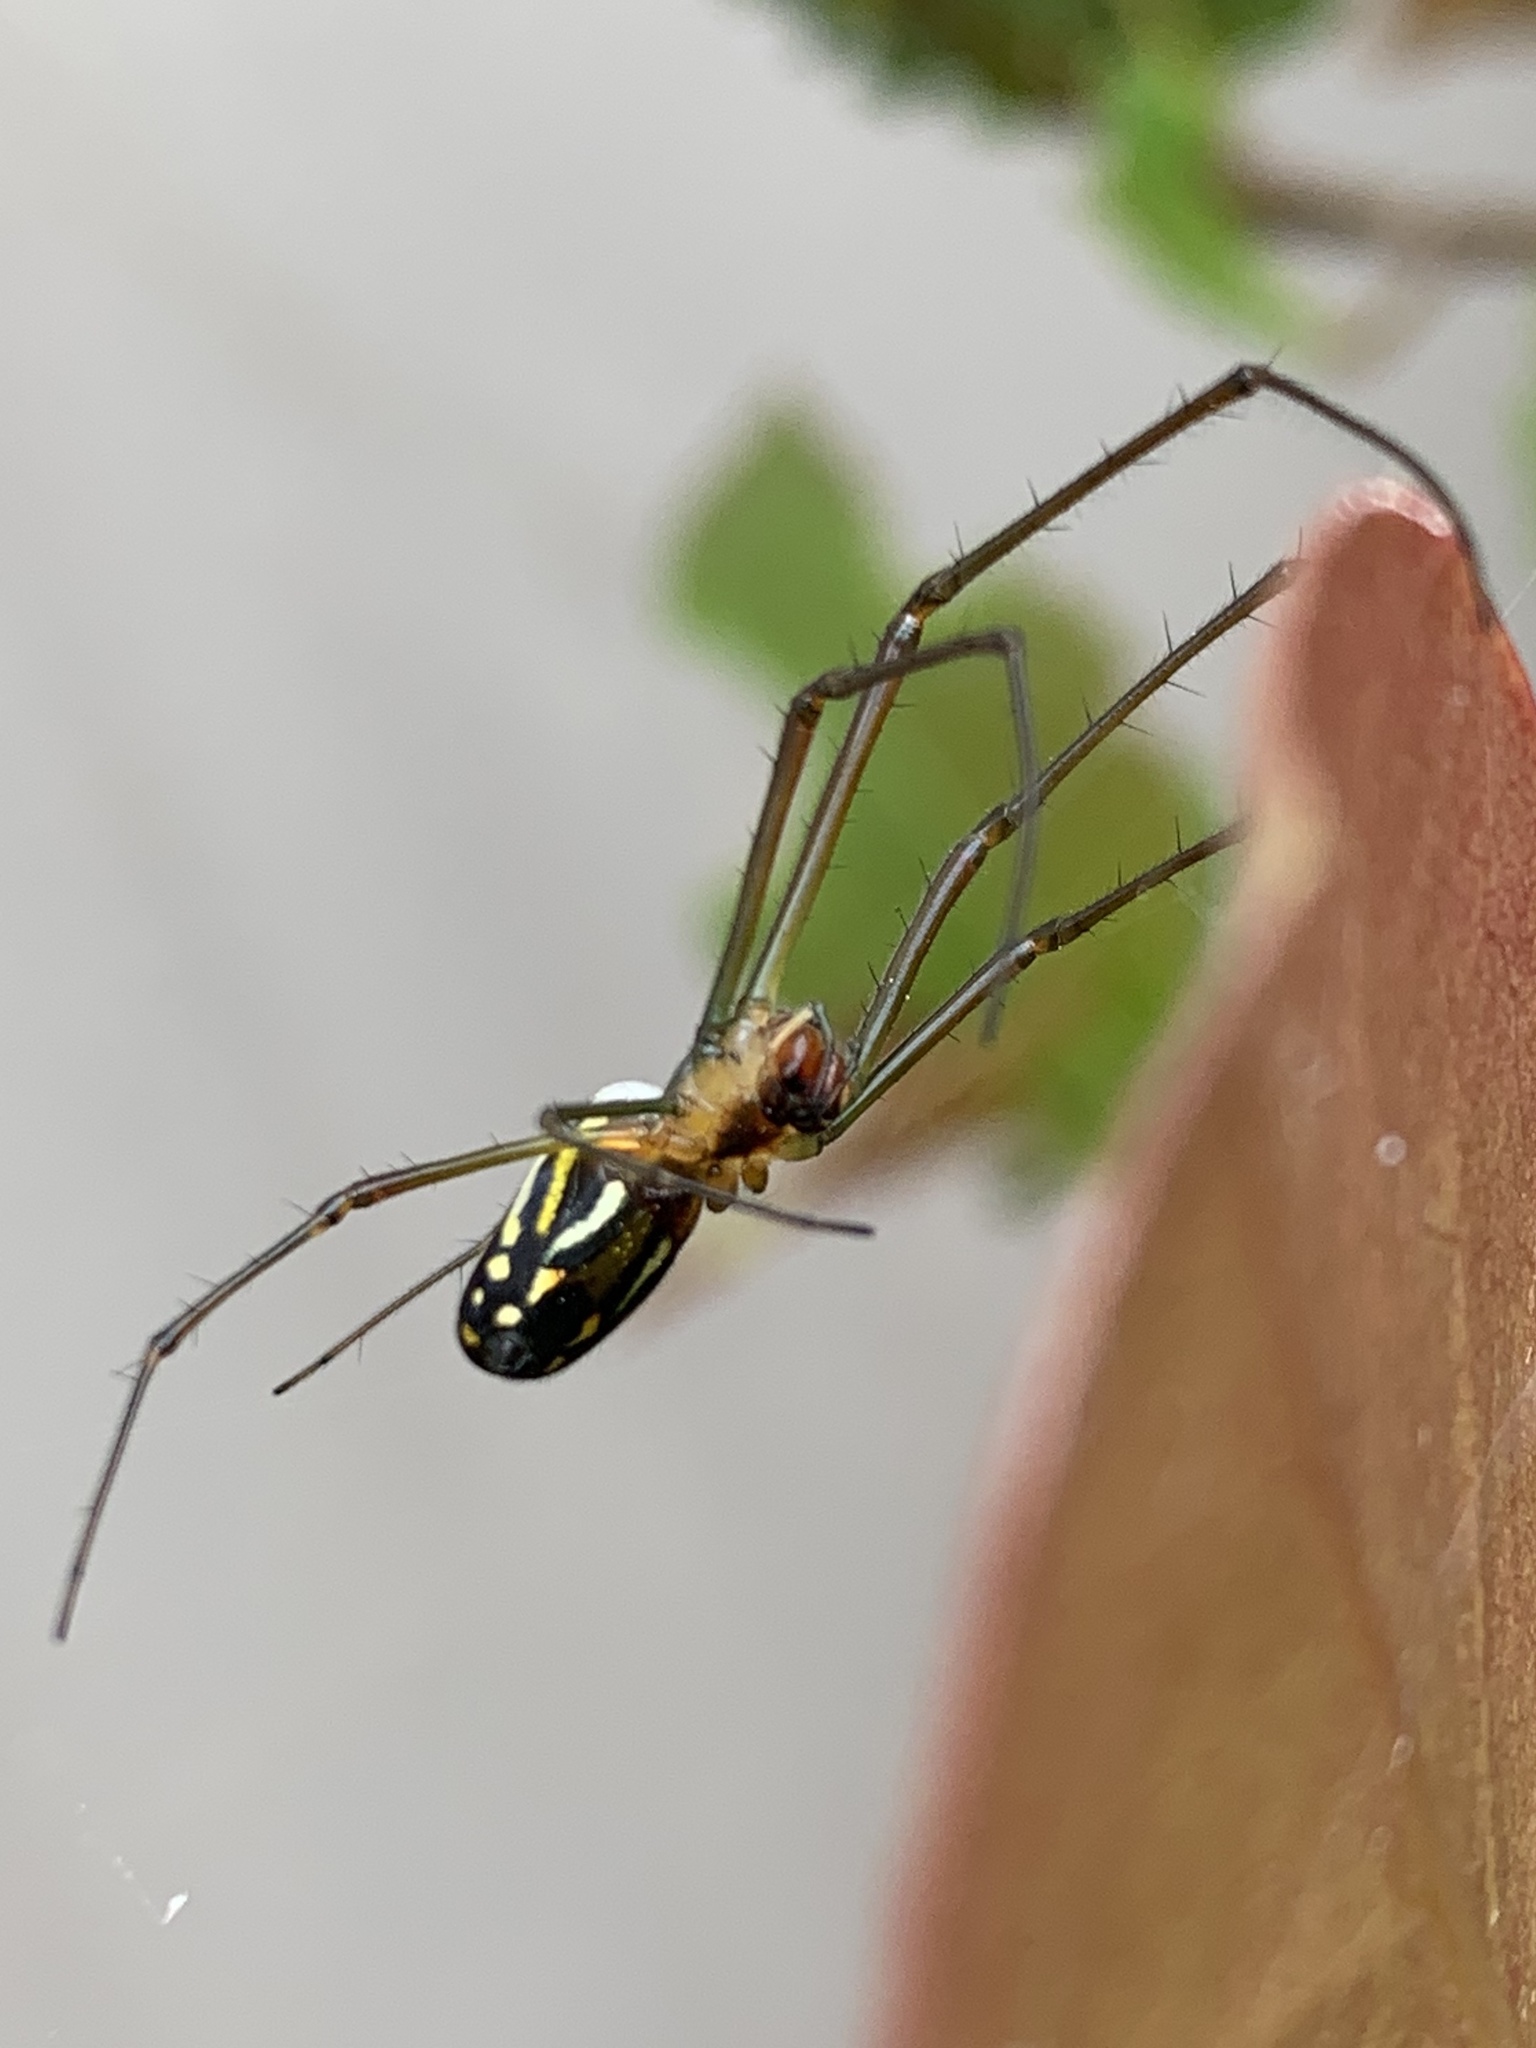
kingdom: Animalia
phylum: Arthropoda
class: Arachnida
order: Araneae
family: Tetragnathidae
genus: Leucauge
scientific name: Leucauge argyra
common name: Longjawed orb weavers
